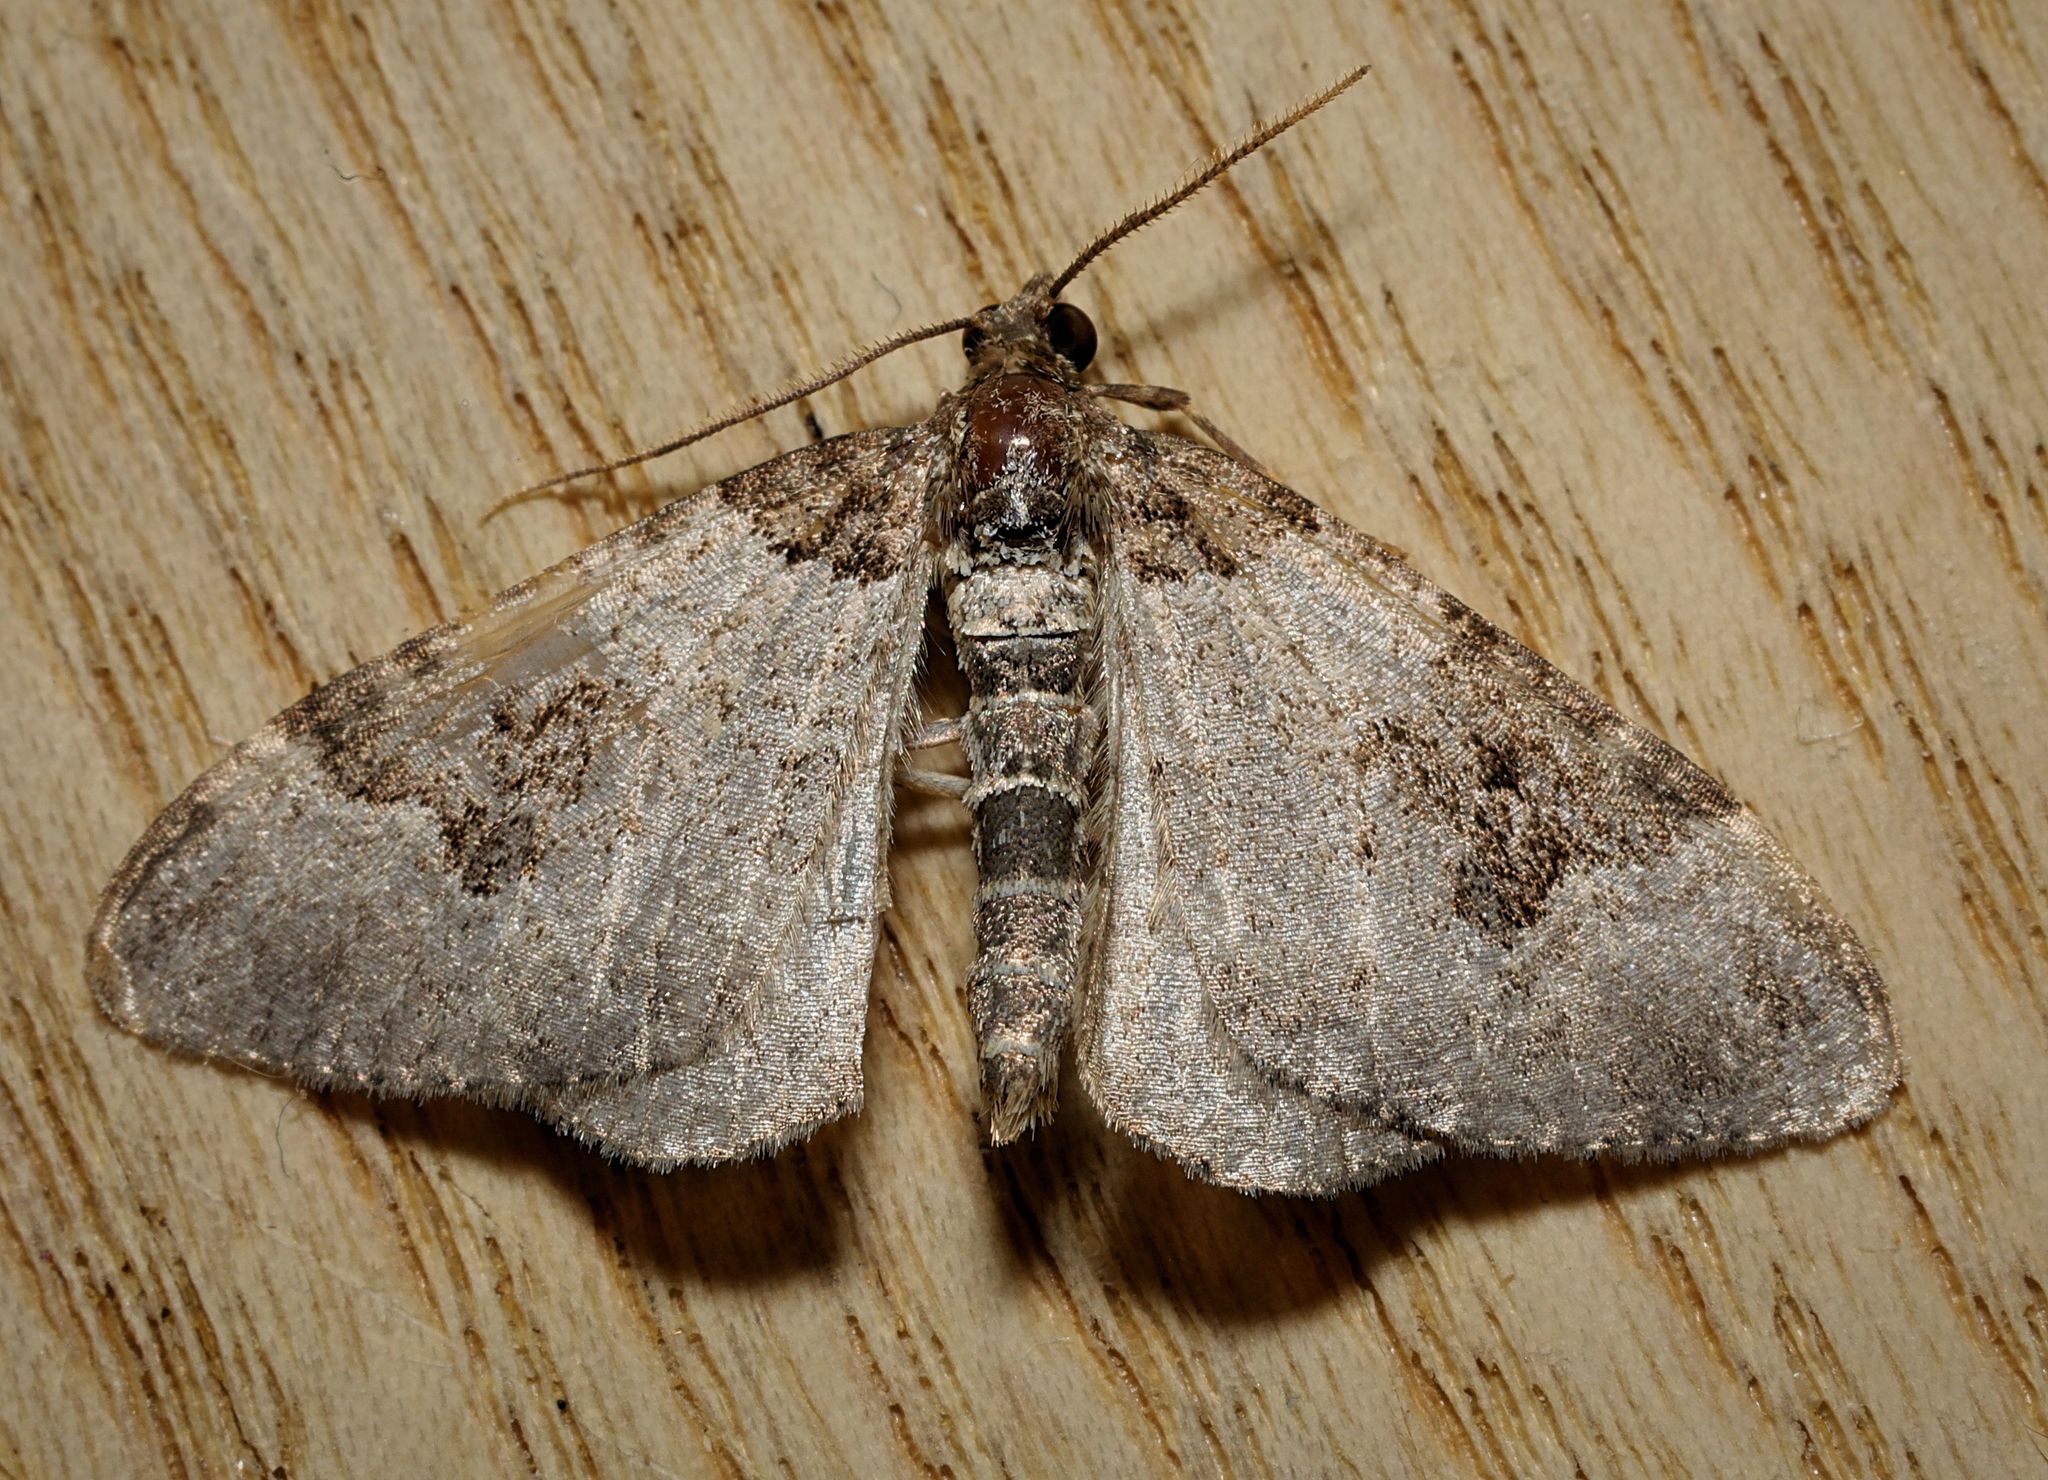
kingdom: Animalia
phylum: Arthropoda
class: Insecta
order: Lepidoptera
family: Geometridae
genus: Xanthorhoe
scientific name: Xanthorhoe fluctuata
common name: Garden carpet
